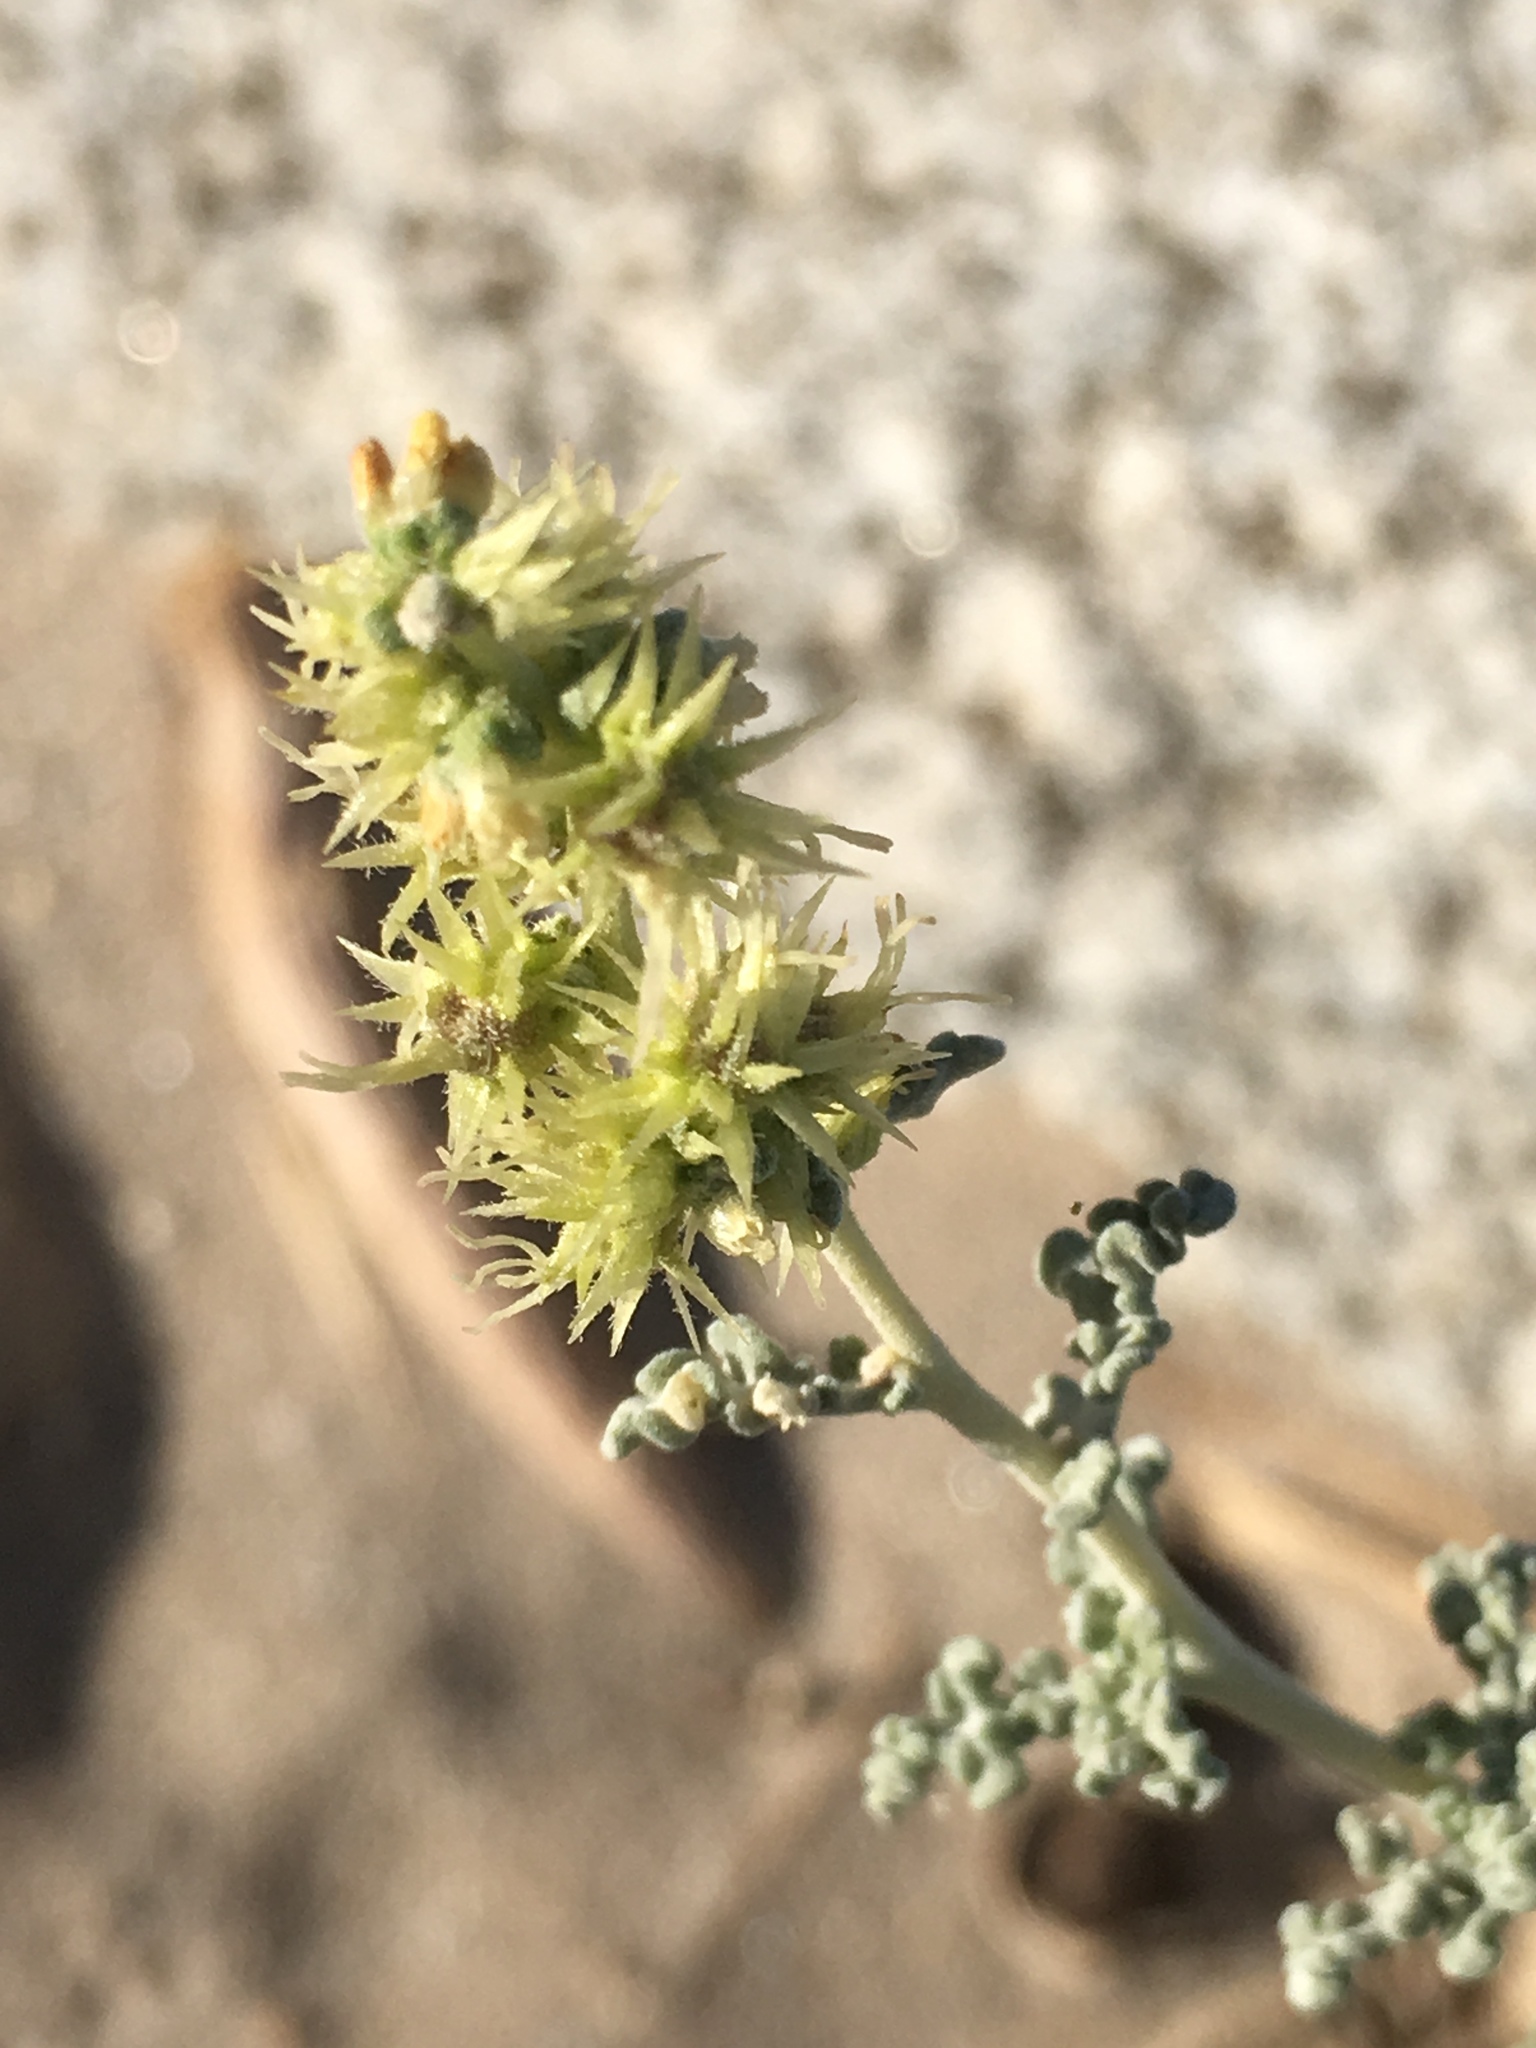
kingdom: Plantae
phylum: Tracheophyta
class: Magnoliopsida
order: Asterales
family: Asteraceae
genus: Ambrosia
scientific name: Ambrosia dumosa
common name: Bur-sage
